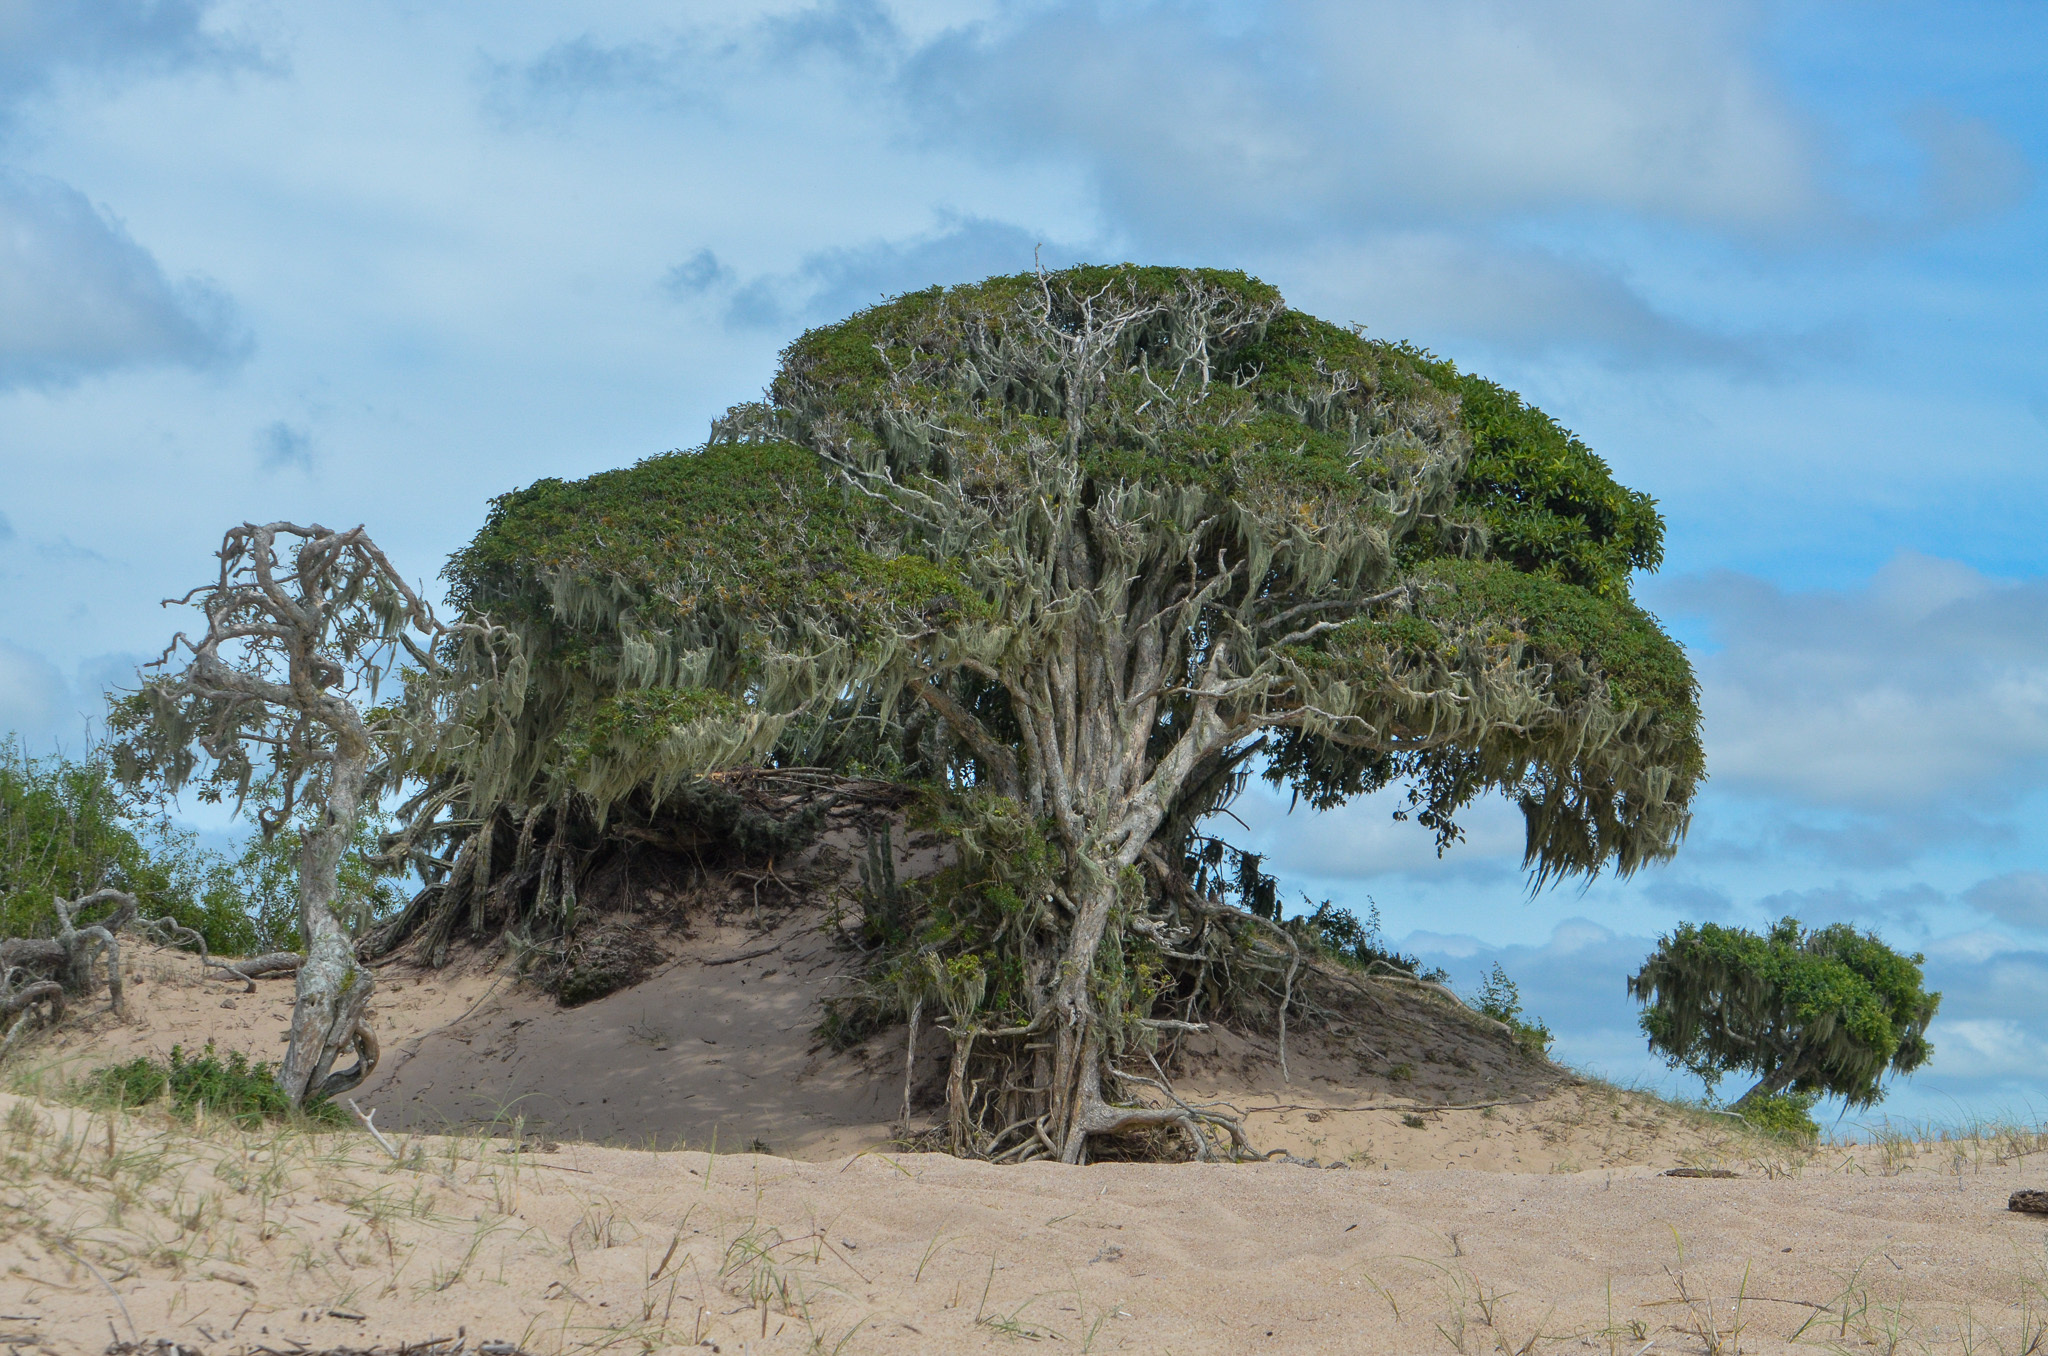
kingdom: Plantae
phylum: Tracheophyta
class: Magnoliopsida
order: Lamiales
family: Lamiaceae
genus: Vitex
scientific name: Vitex megapotamica
